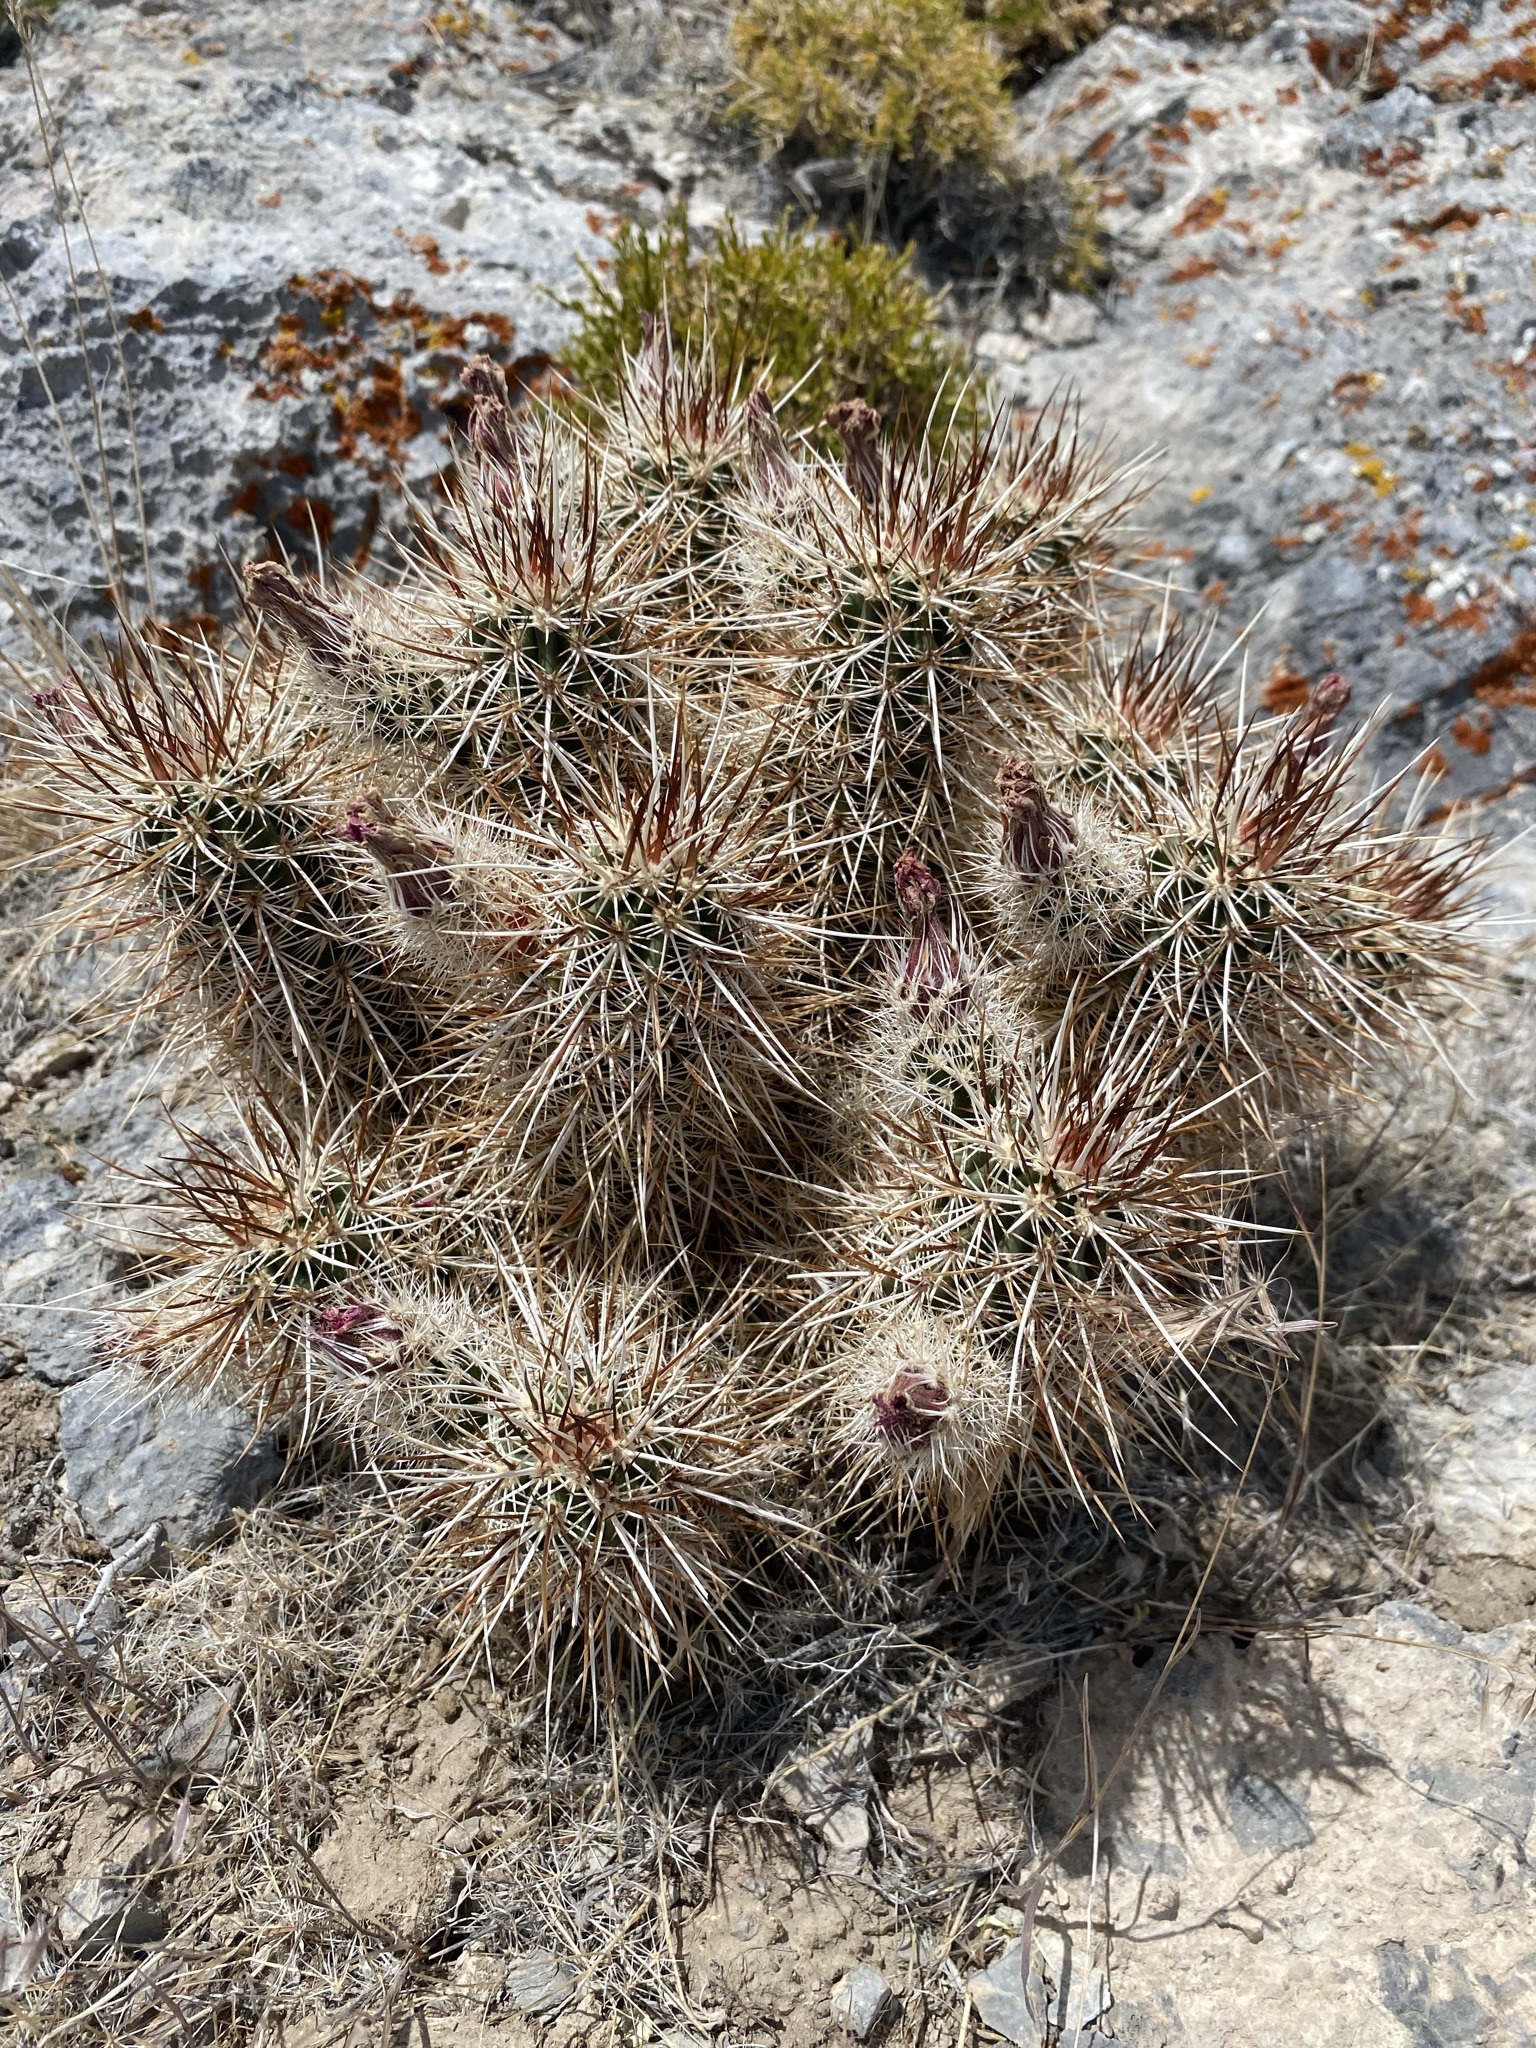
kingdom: Plantae
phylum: Tracheophyta
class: Magnoliopsida
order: Caryophyllales
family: Cactaceae
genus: Echinocereus
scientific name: Echinocereus engelmannii
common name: Engelmann's hedgehog cactus
